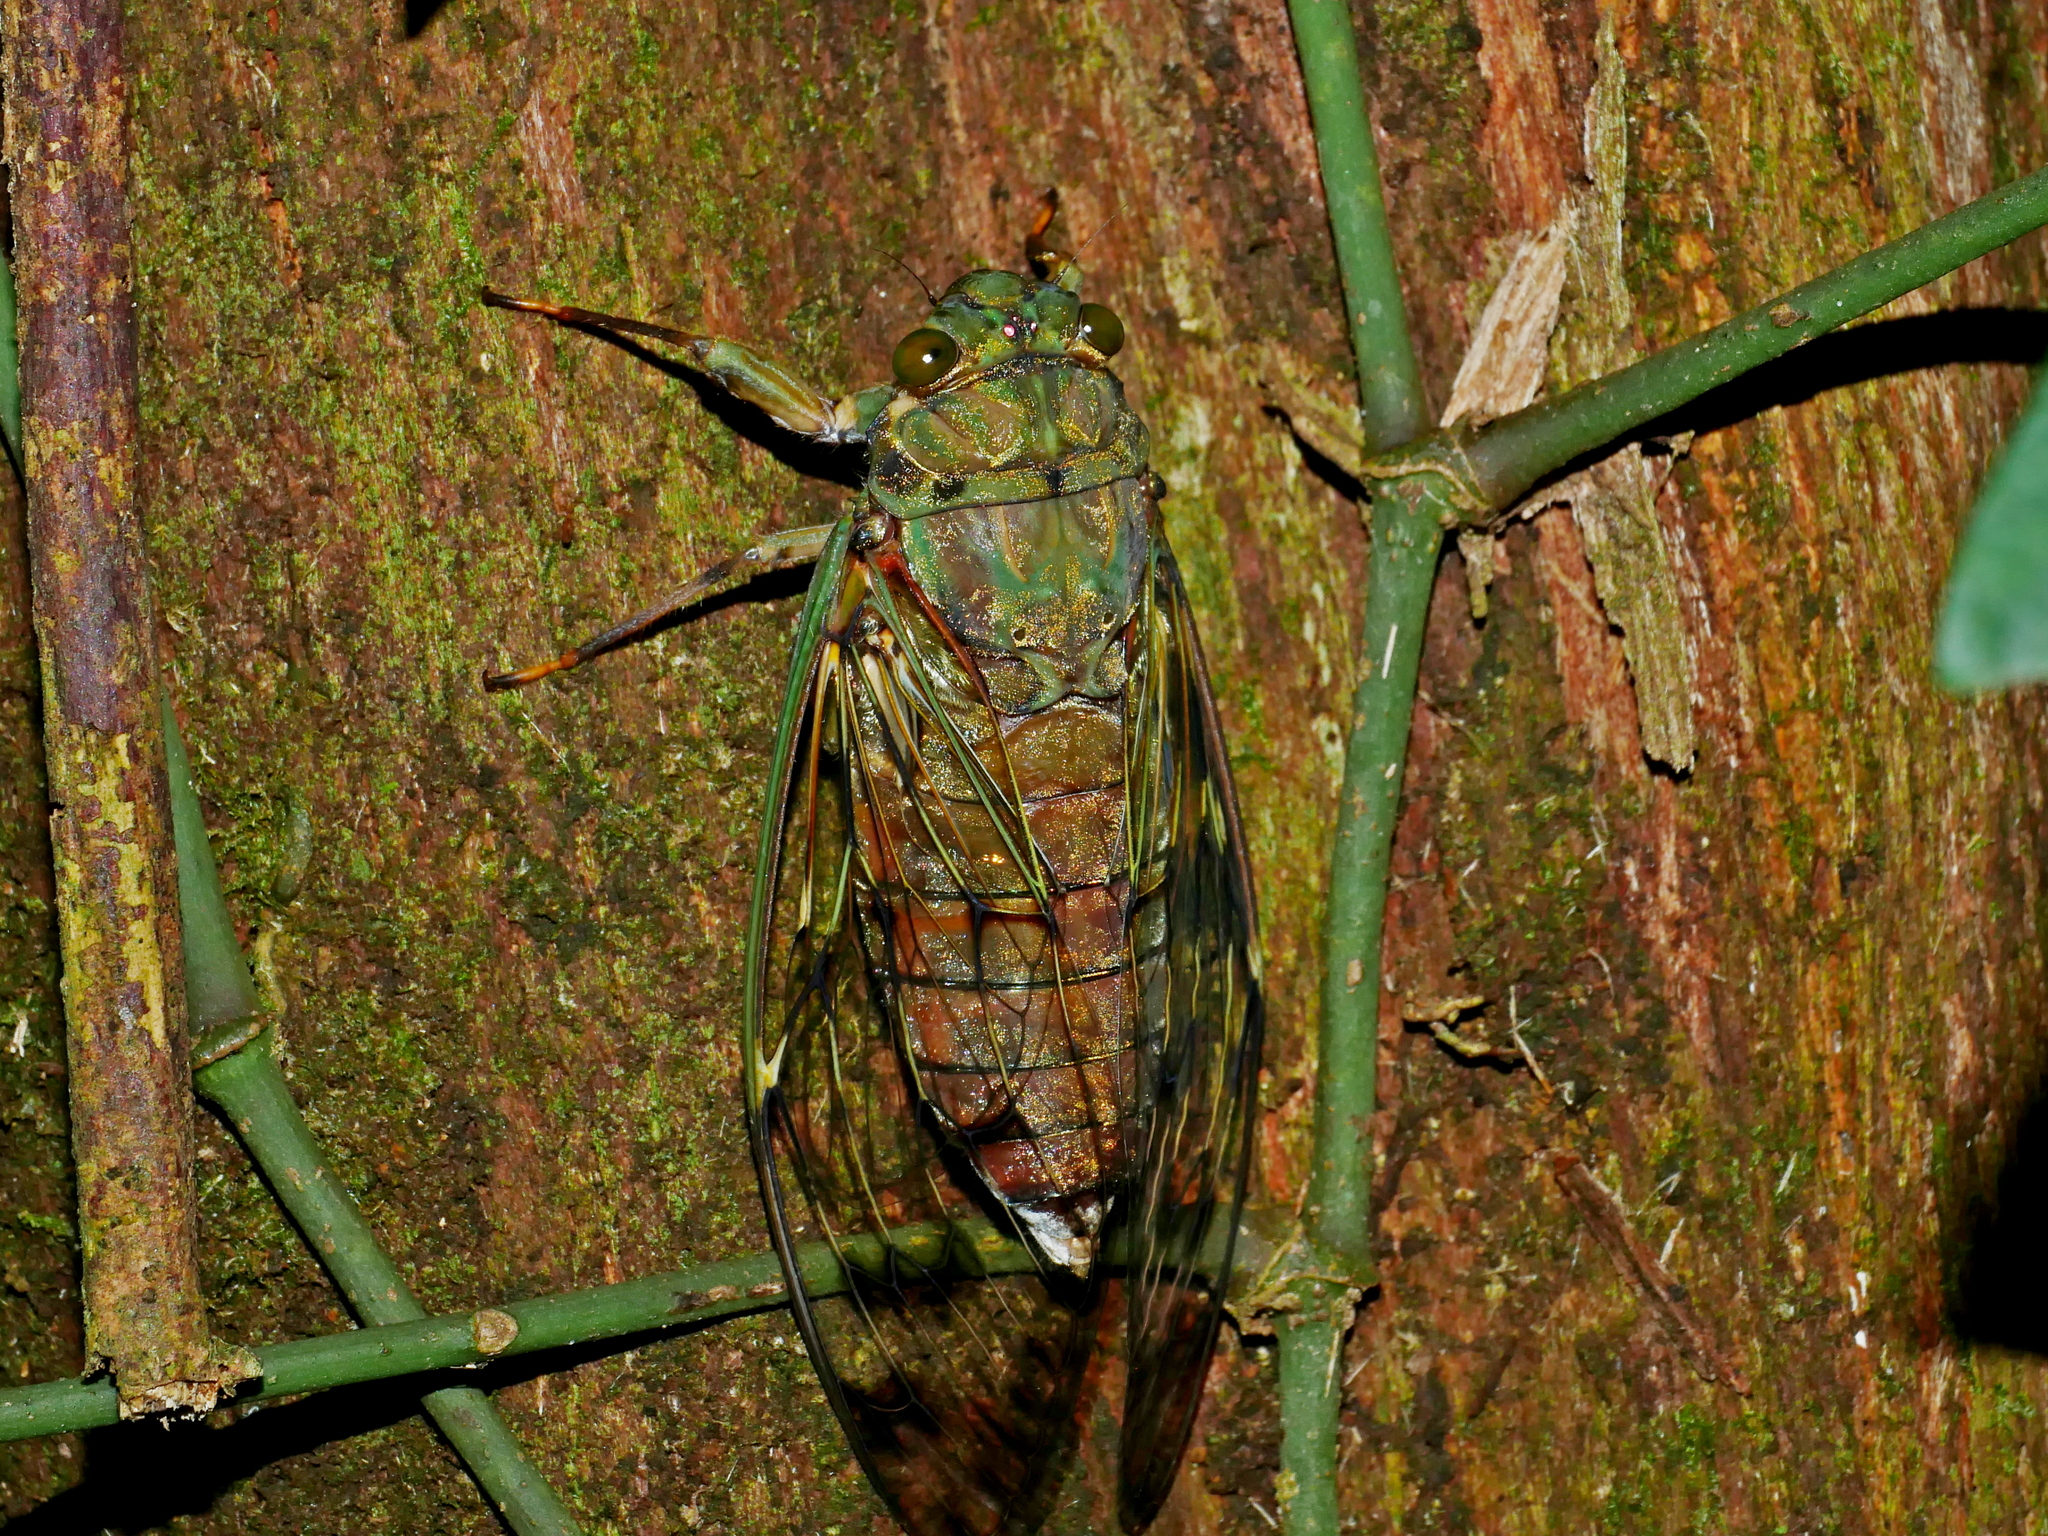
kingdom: Animalia
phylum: Arthropoda
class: Insecta
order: Hemiptera
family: Cicadidae
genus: Pomponia
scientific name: Pomponia yayeyamana
